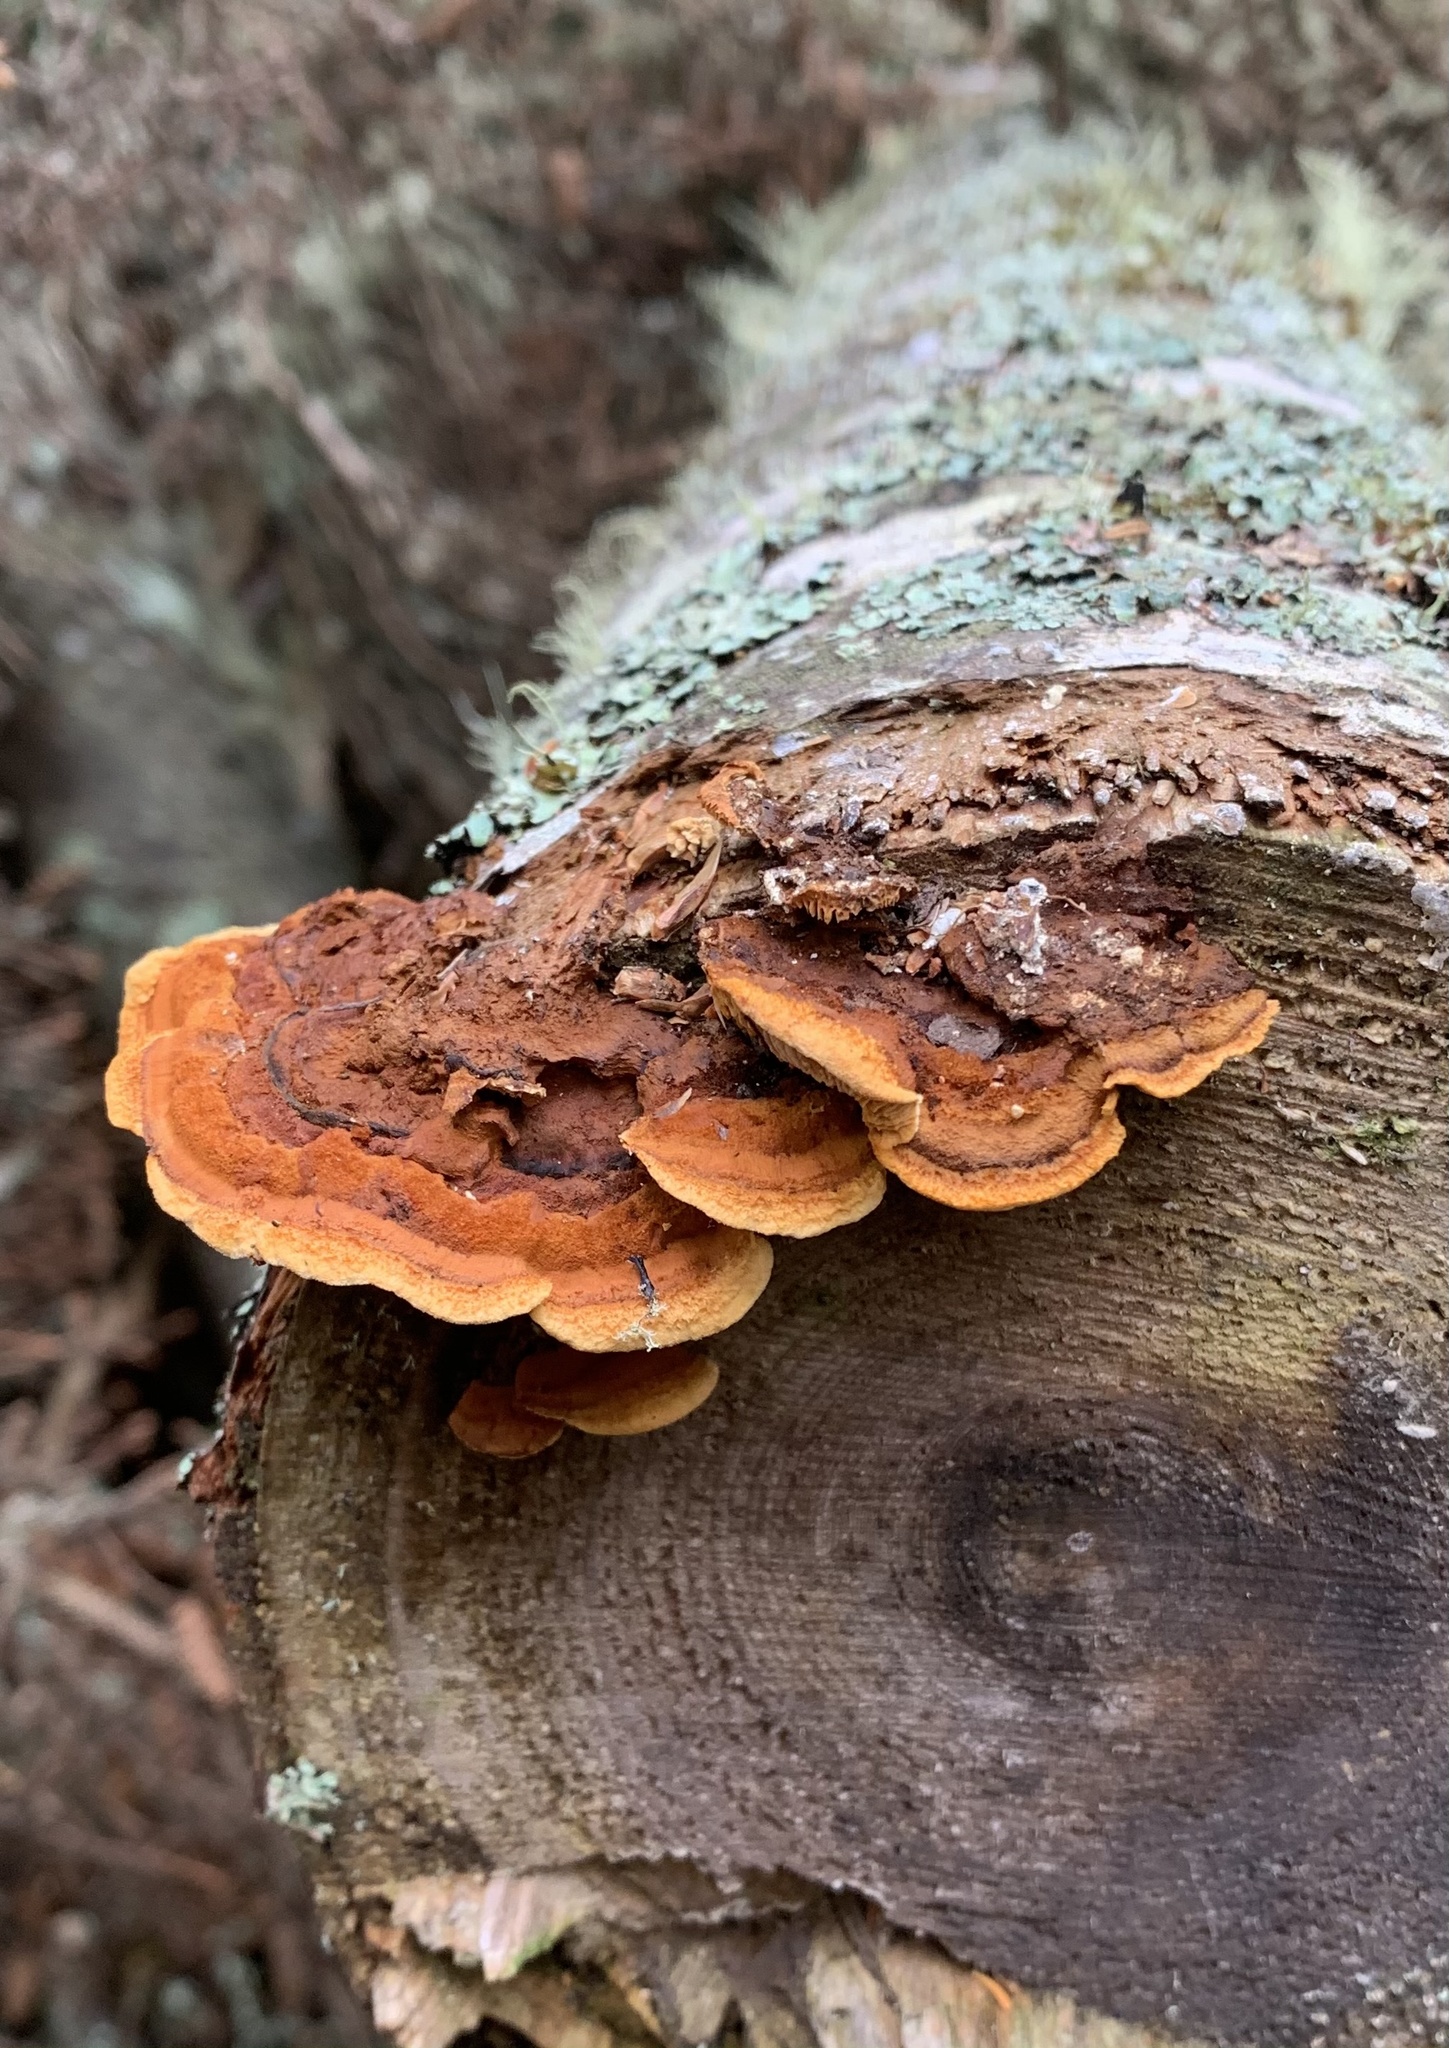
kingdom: Fungi
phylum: Basidiomycota
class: Agaricomycetes
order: Gloeophyllales
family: Gloeophyllaceae
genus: Gloeophyllum
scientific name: Gloeophyllum sepiarium
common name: Conifer mazegill
